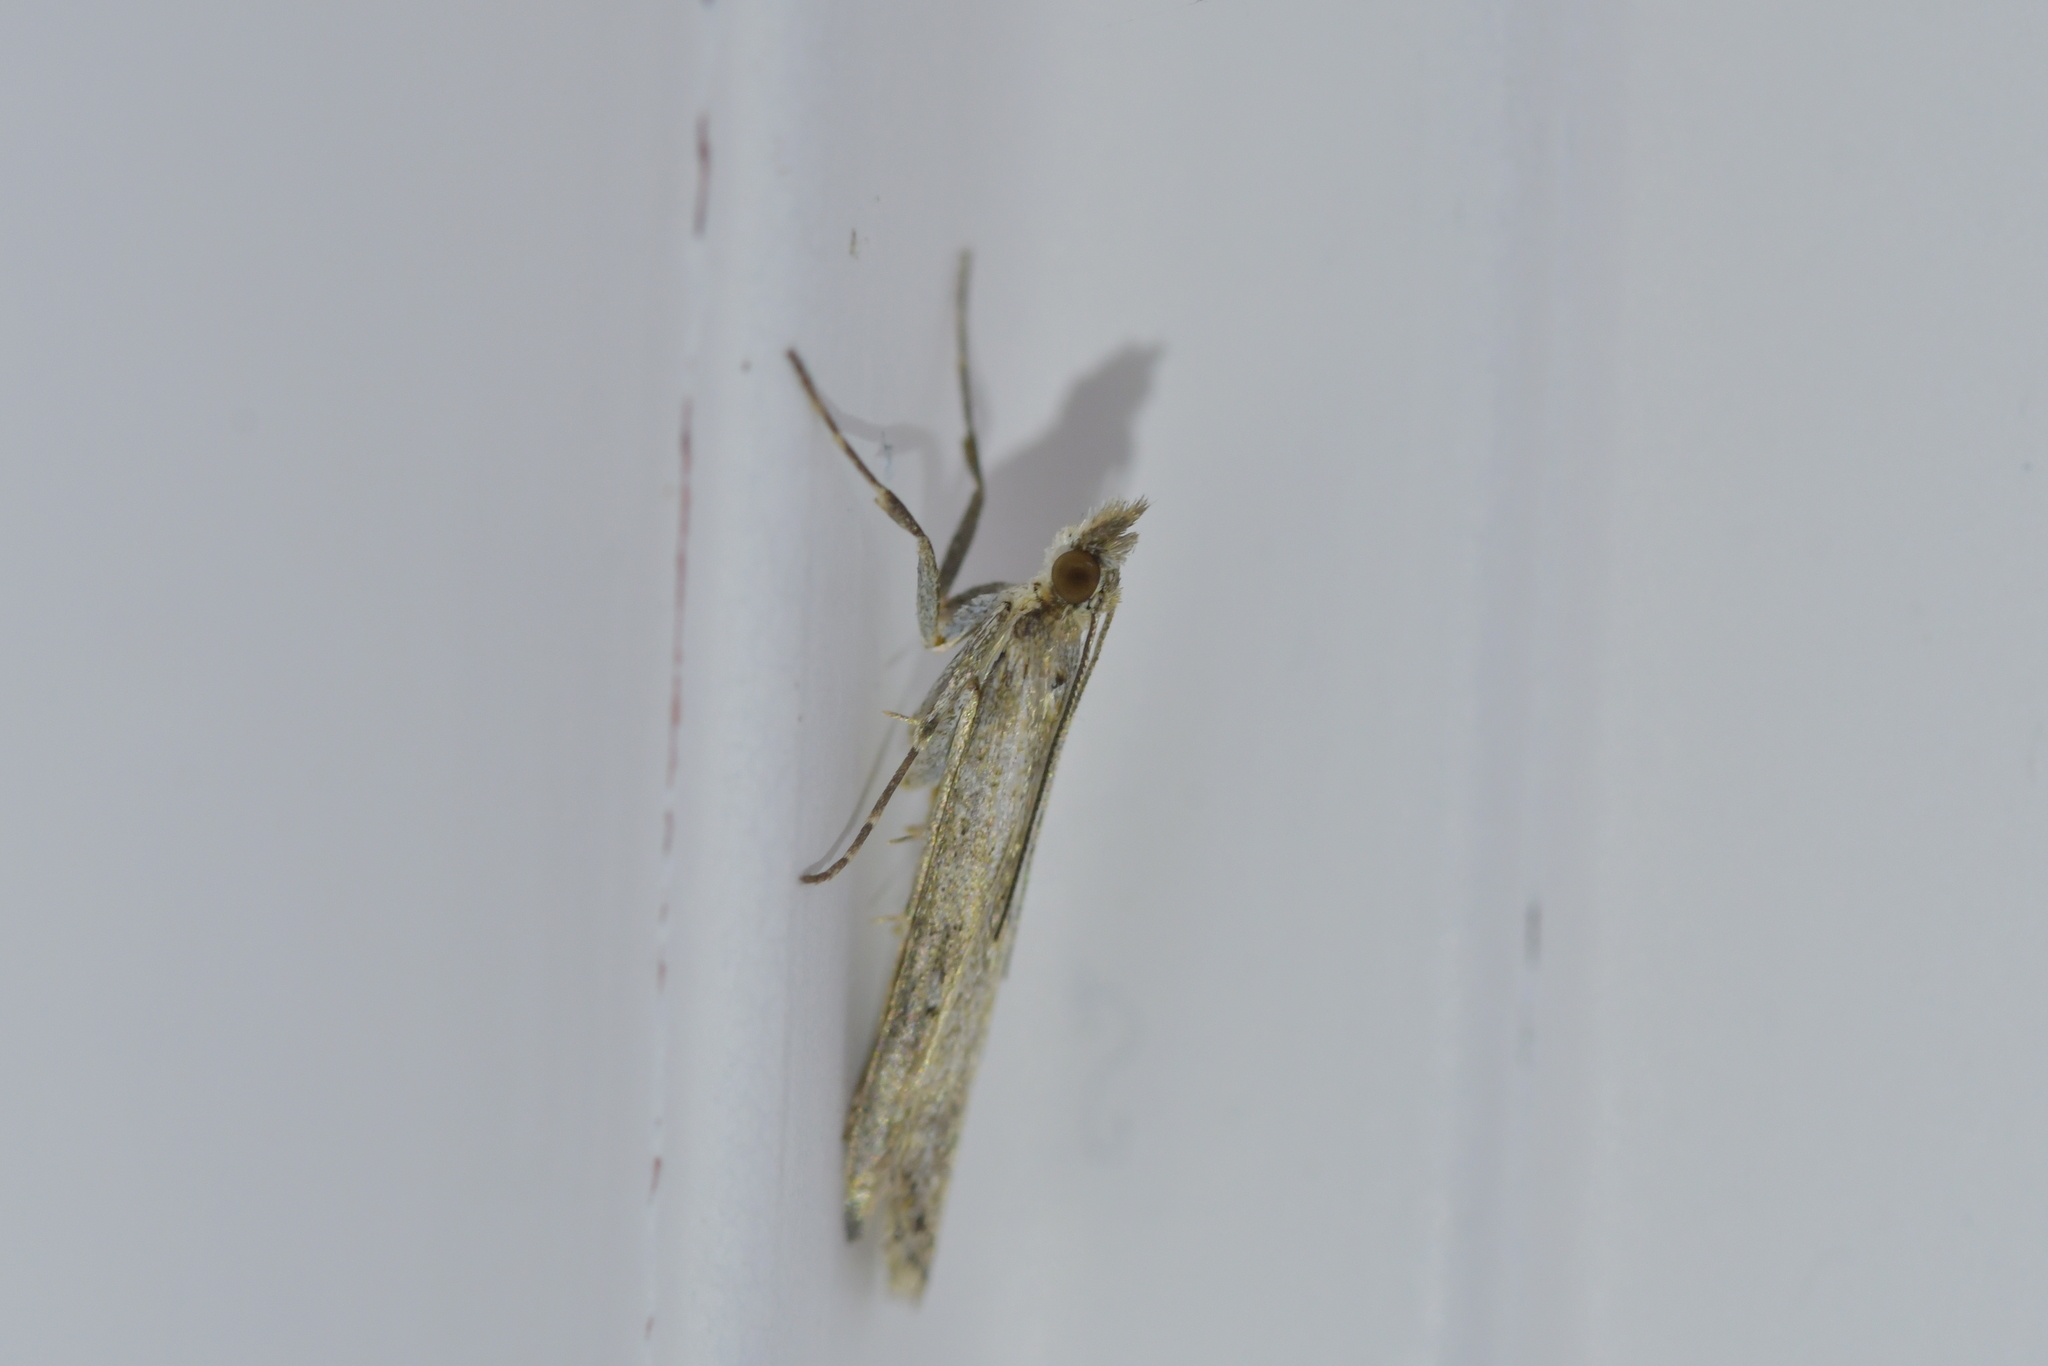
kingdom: Animalia
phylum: Arthropoda
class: Insecta
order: Lepidoptera
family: Crambidae
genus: Eudonia
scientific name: Eudonia leptalea
